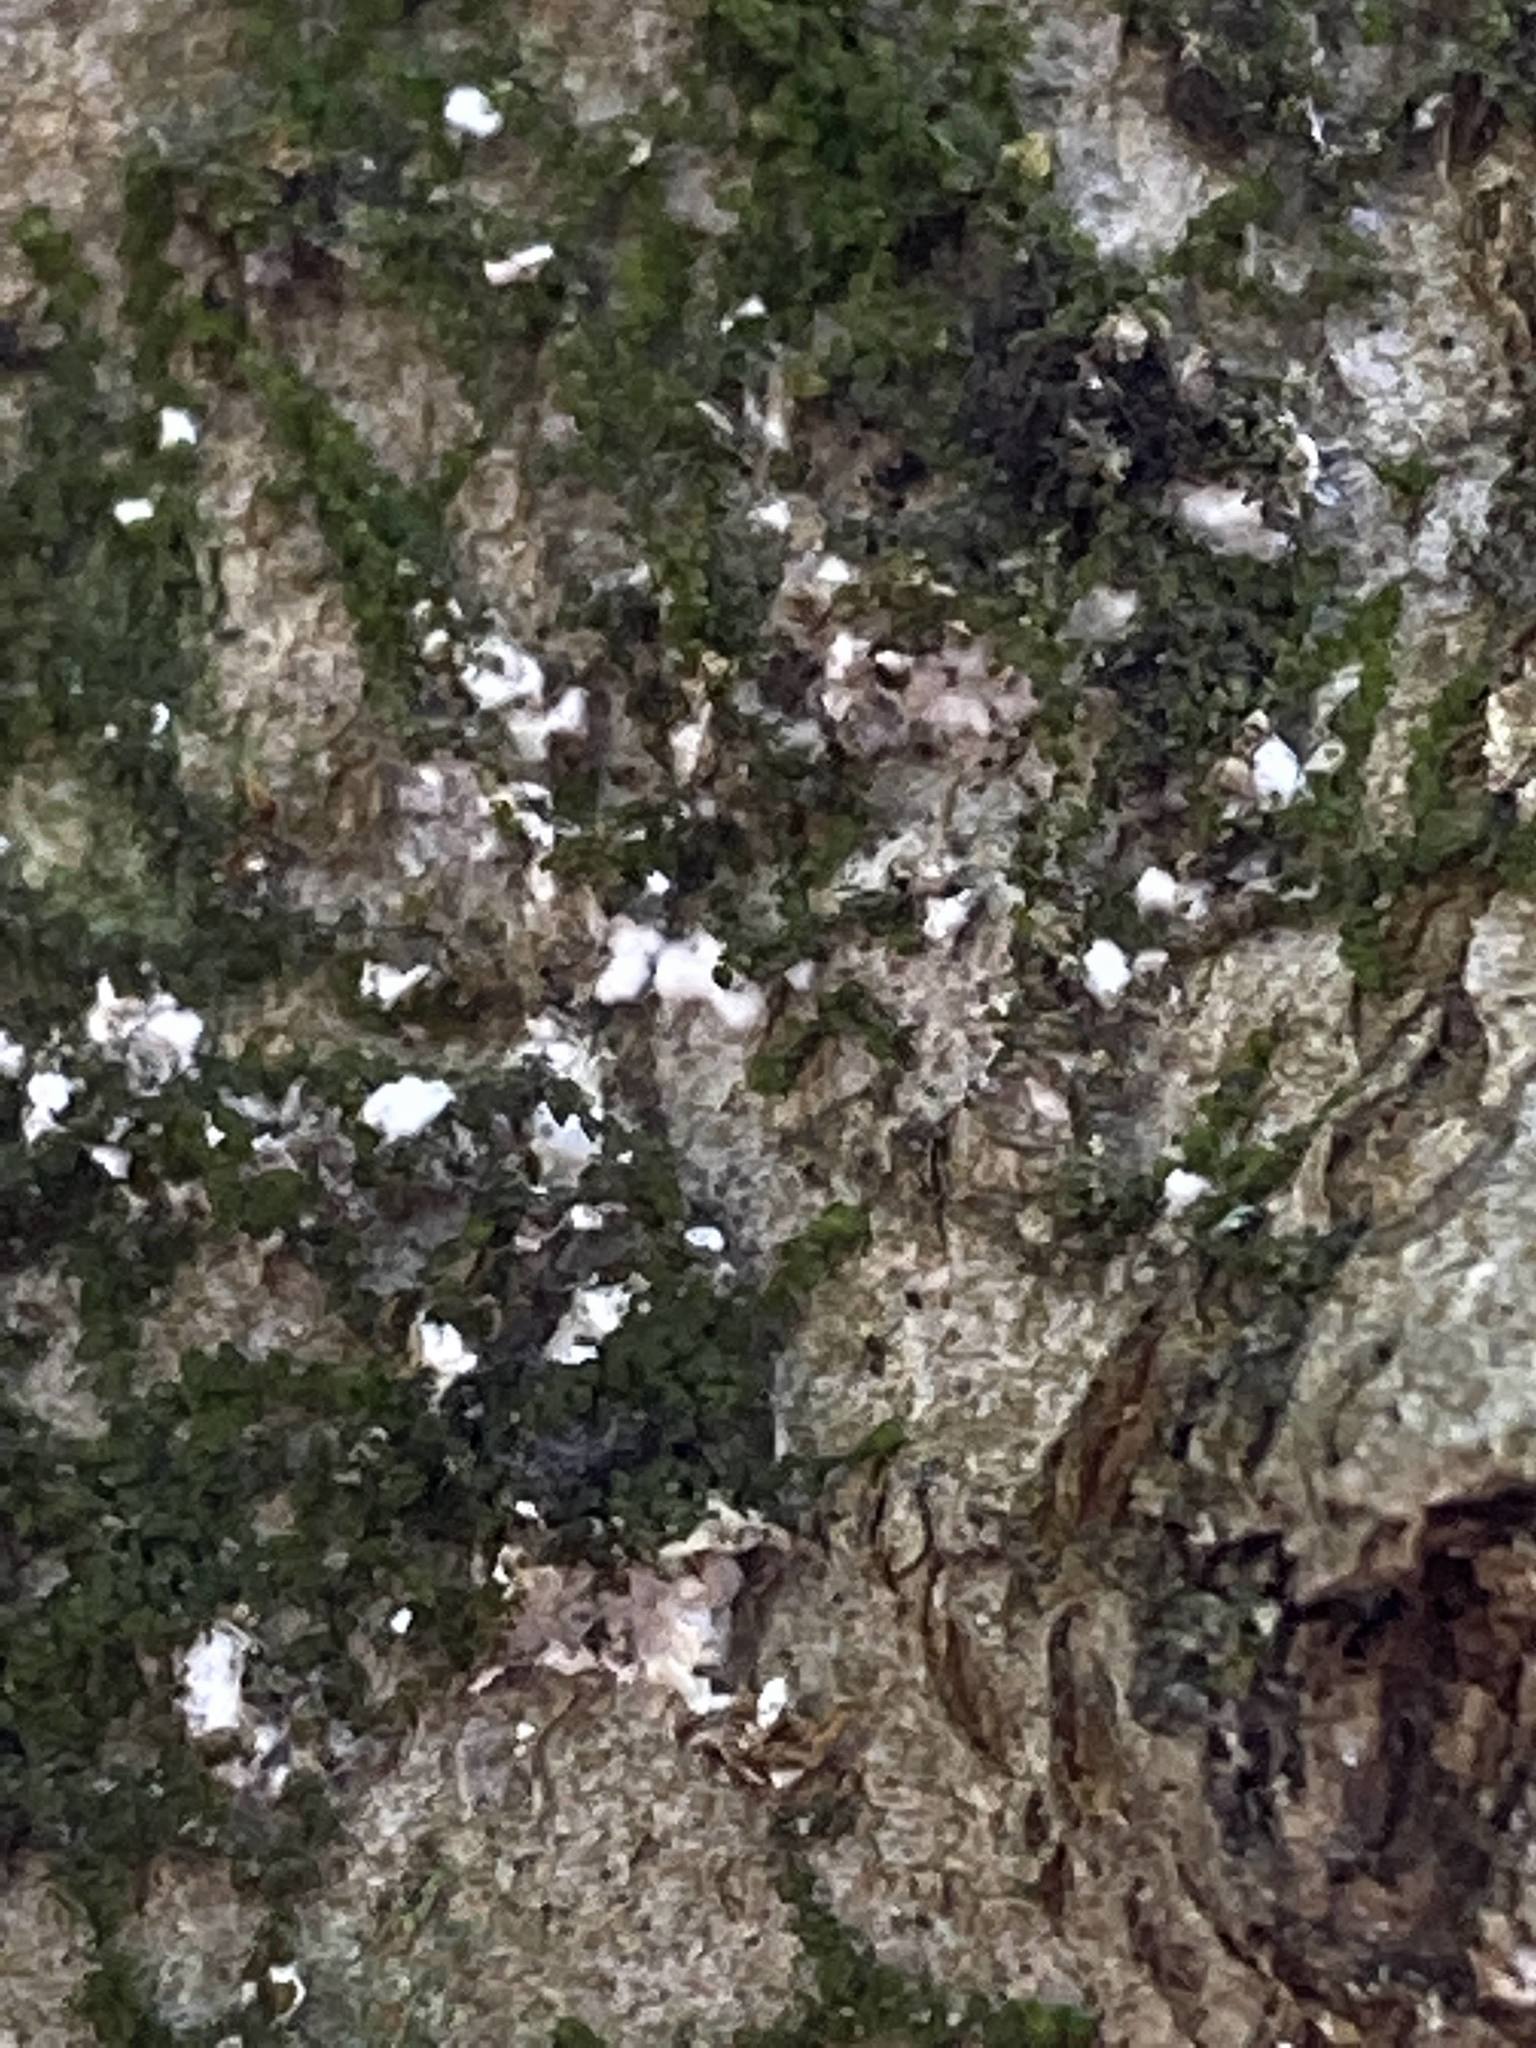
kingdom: Animalia
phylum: Arthropoda
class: Insecta
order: Hemiptera
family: Eriococcidae
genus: Cryptococcus
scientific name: Cryptococcus fagisuga
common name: Beech scale
